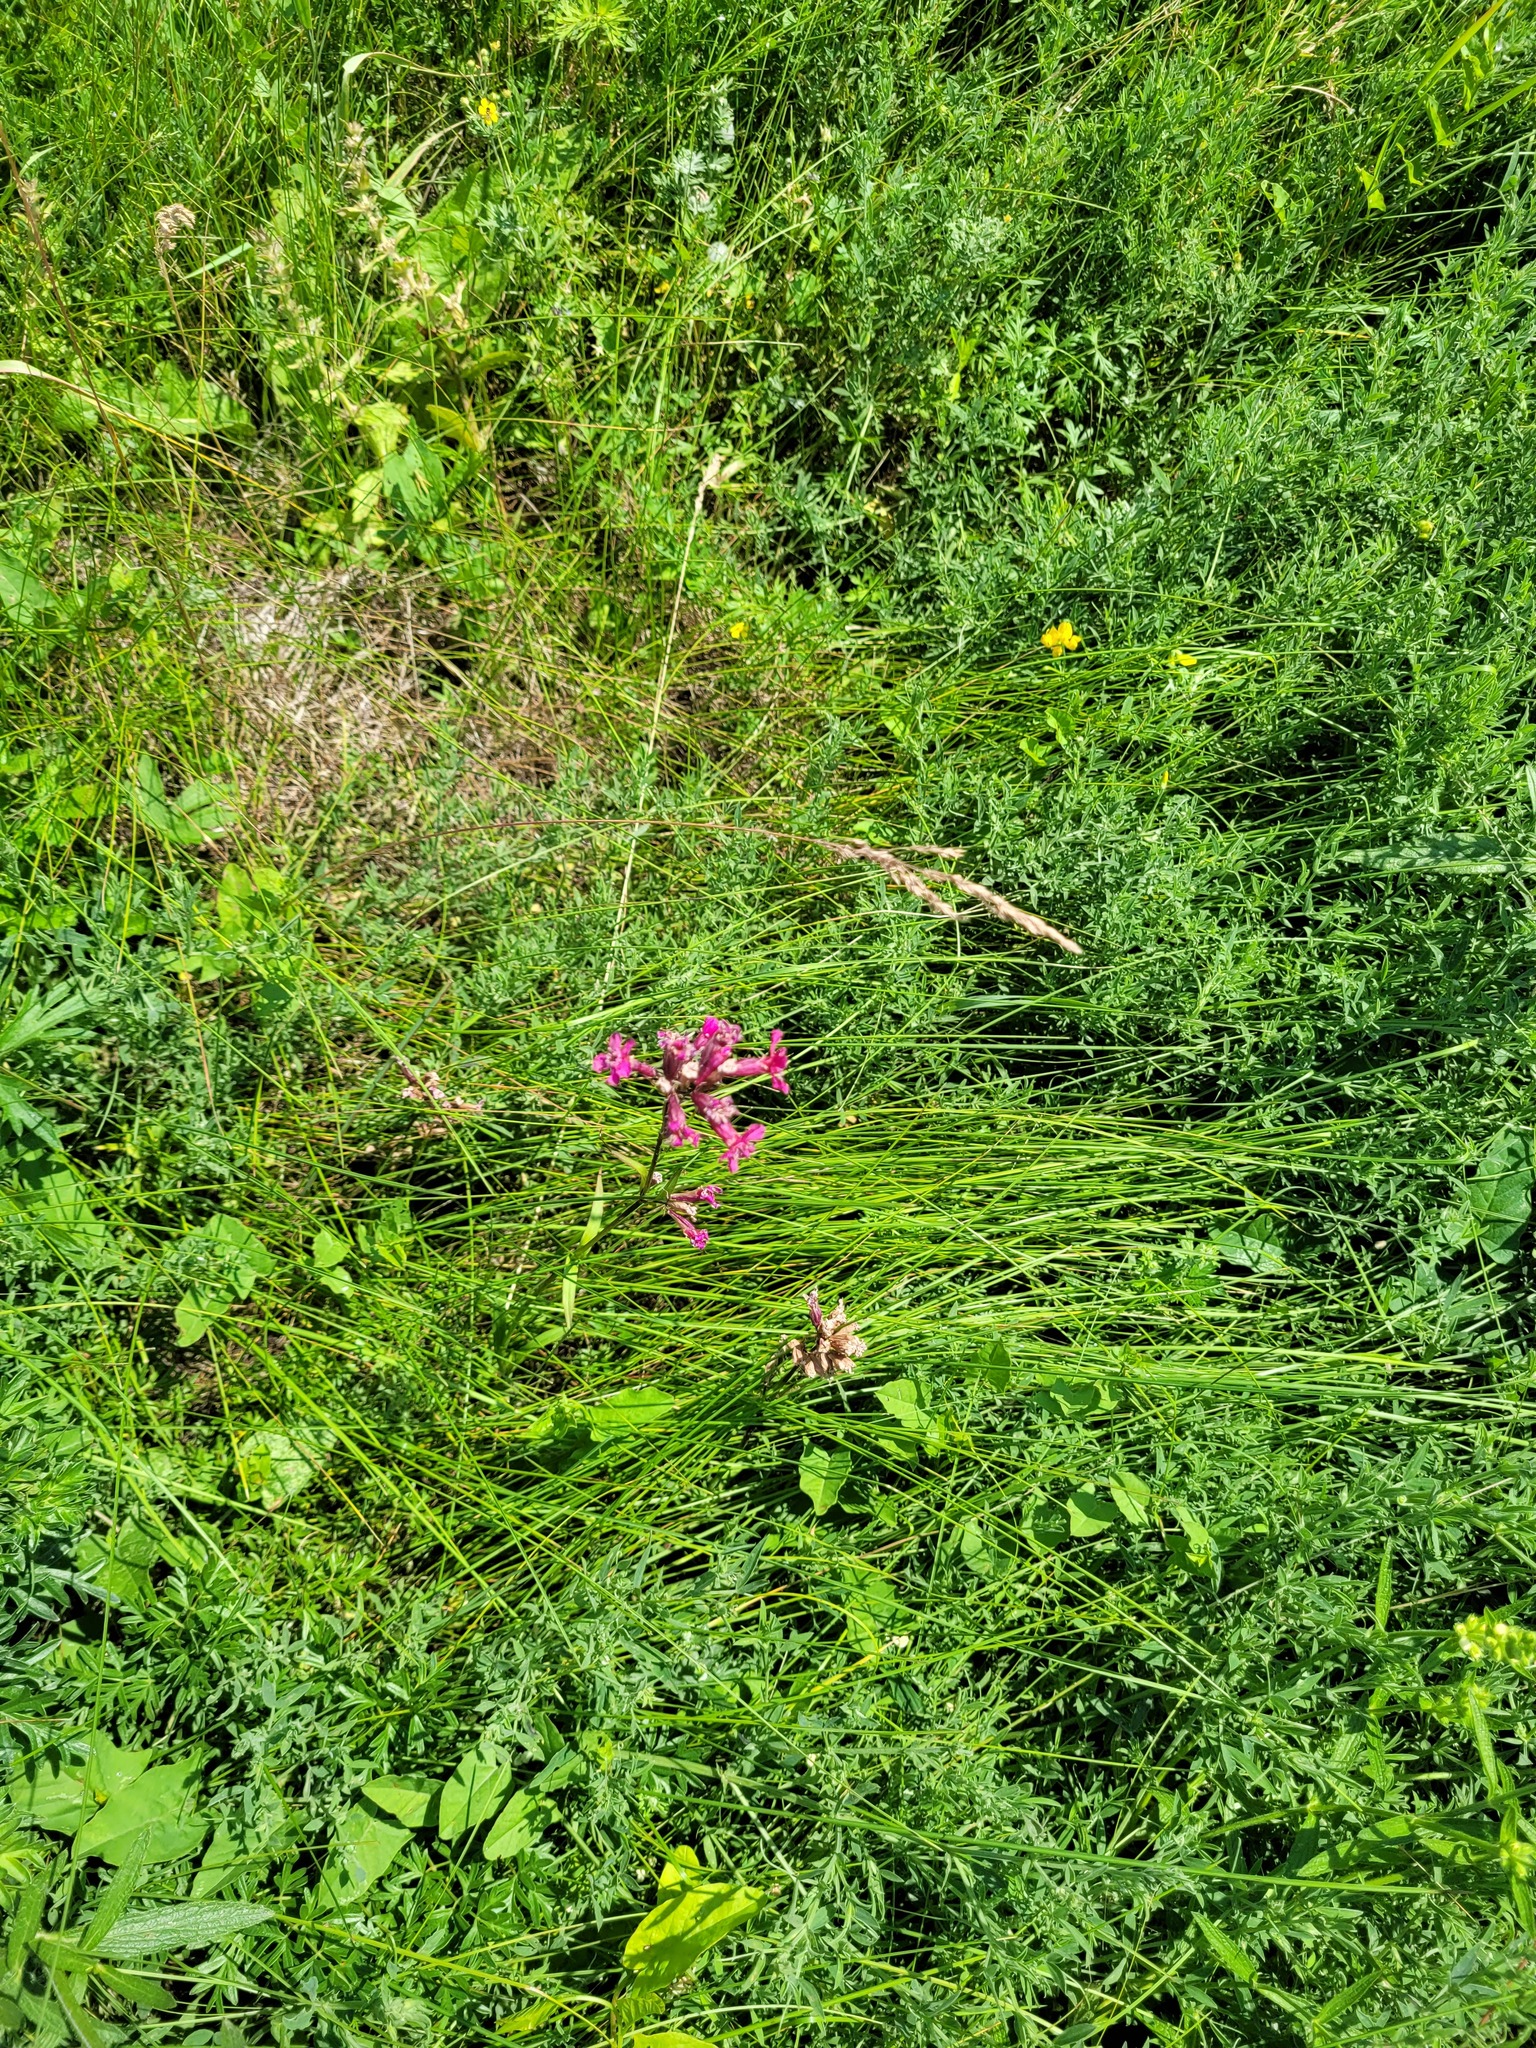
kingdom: Plantae
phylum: Tracheophyta
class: Magnoliopsida
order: Caryophyllales
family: Caryophyllaceae
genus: Viscaria
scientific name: Viscaria vulgaris
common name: Clammy campion
